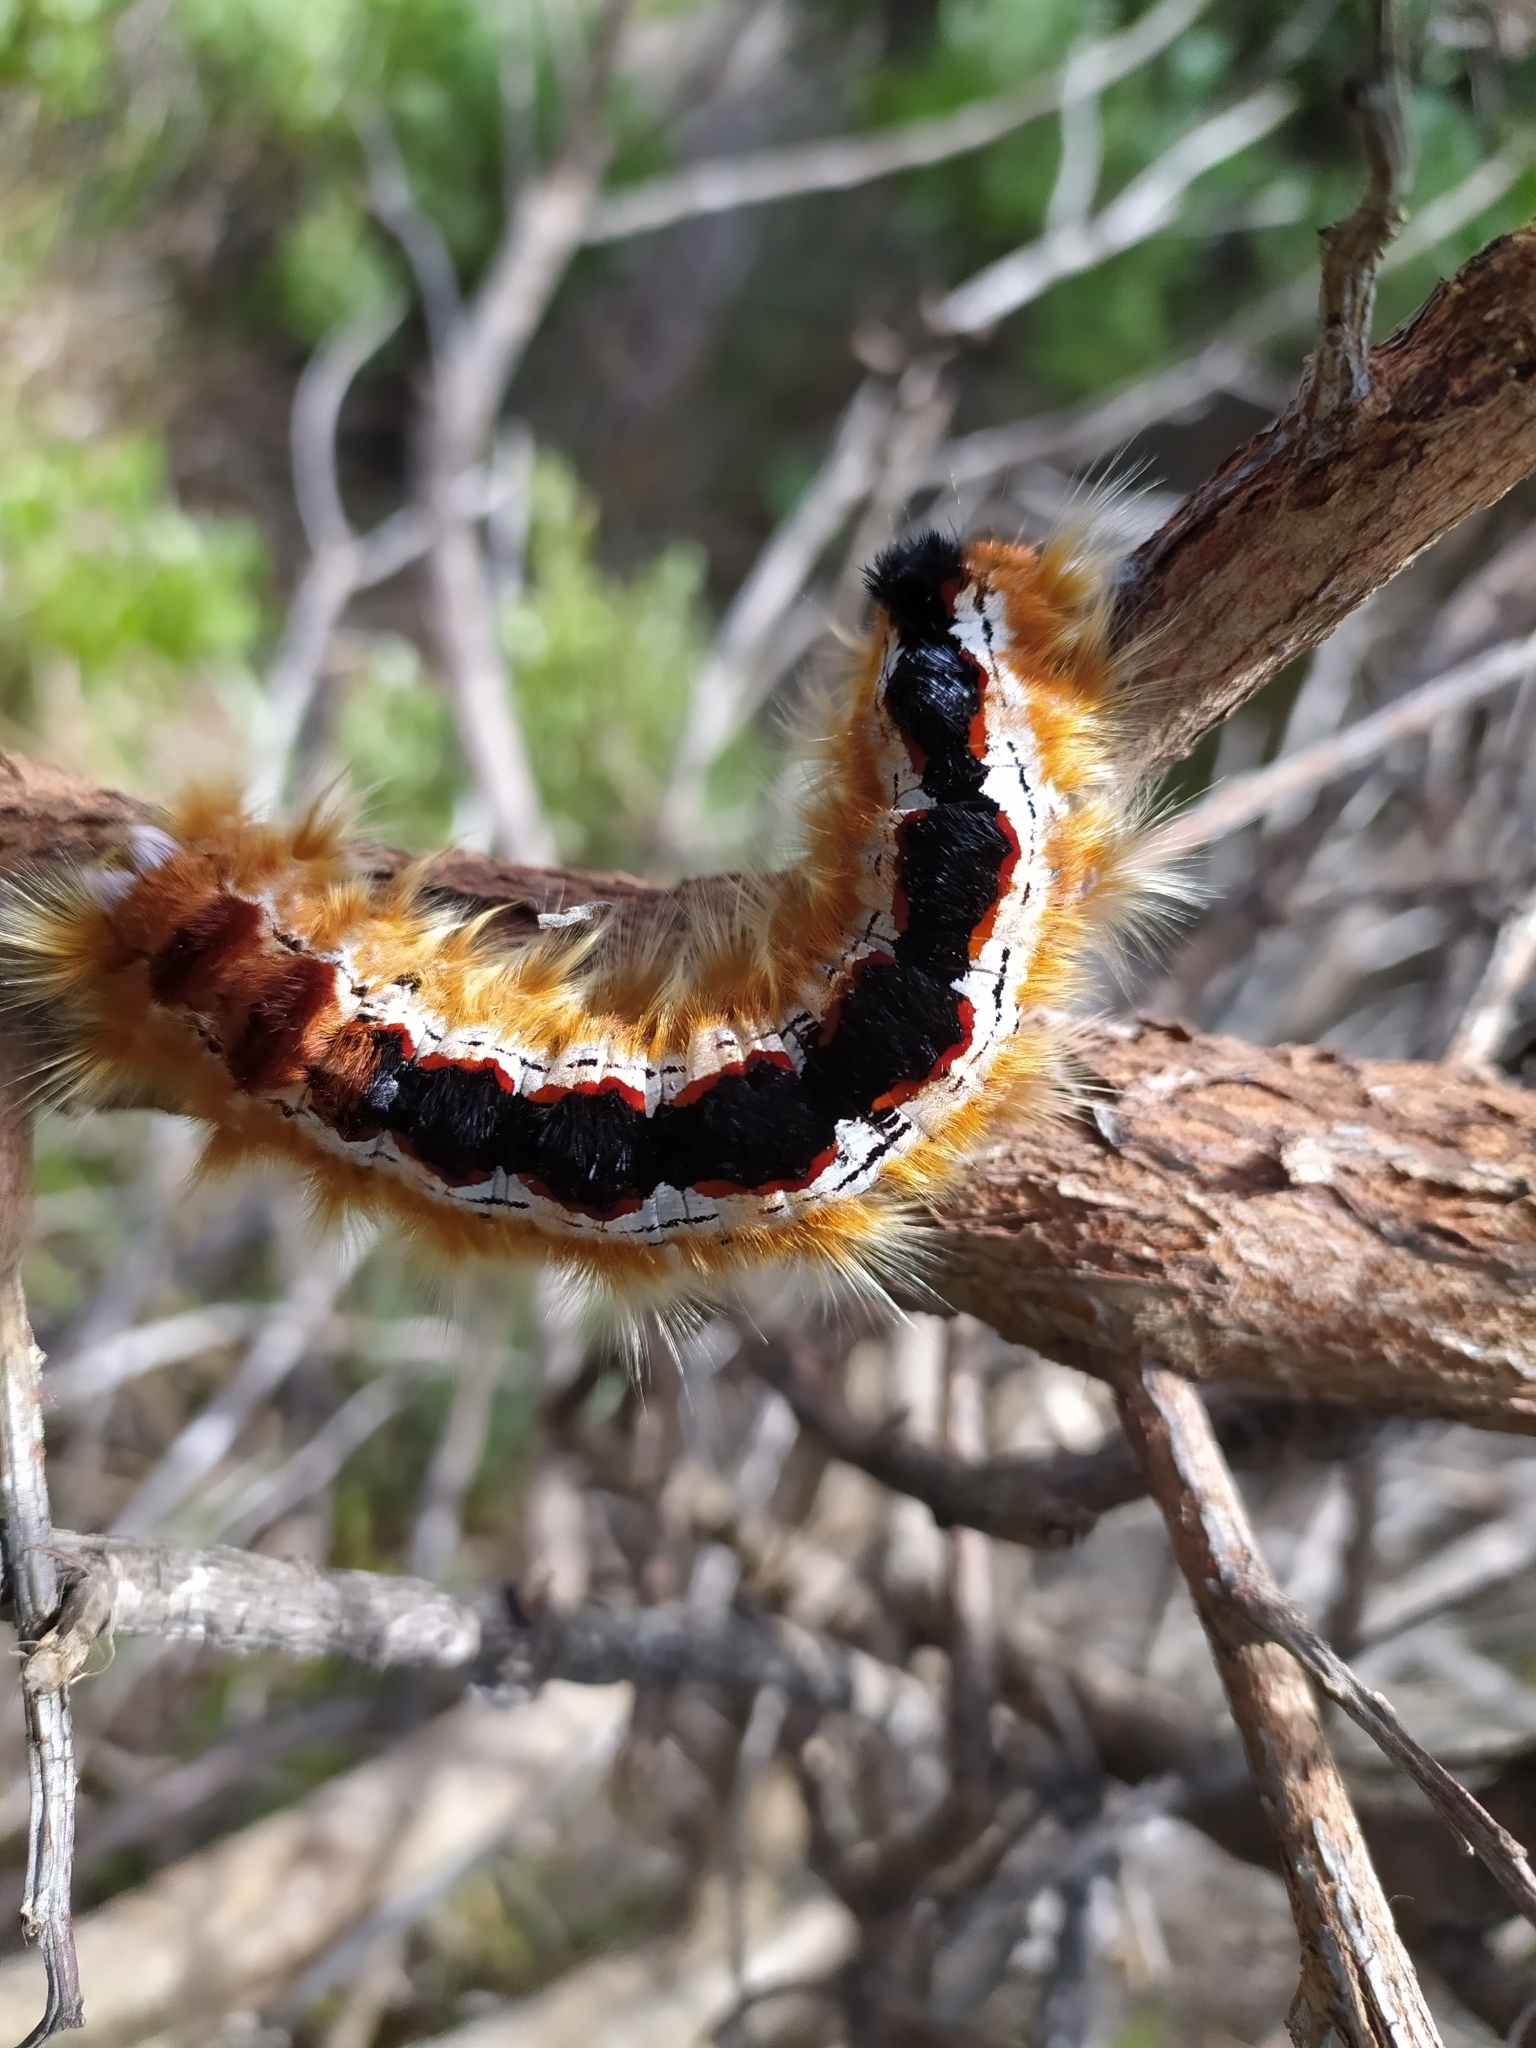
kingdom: Animalia
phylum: Arthropoda
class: Insecta
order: Lepidoptera
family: Lasiocampidae
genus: Eutricha
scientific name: Eutricha capensis
